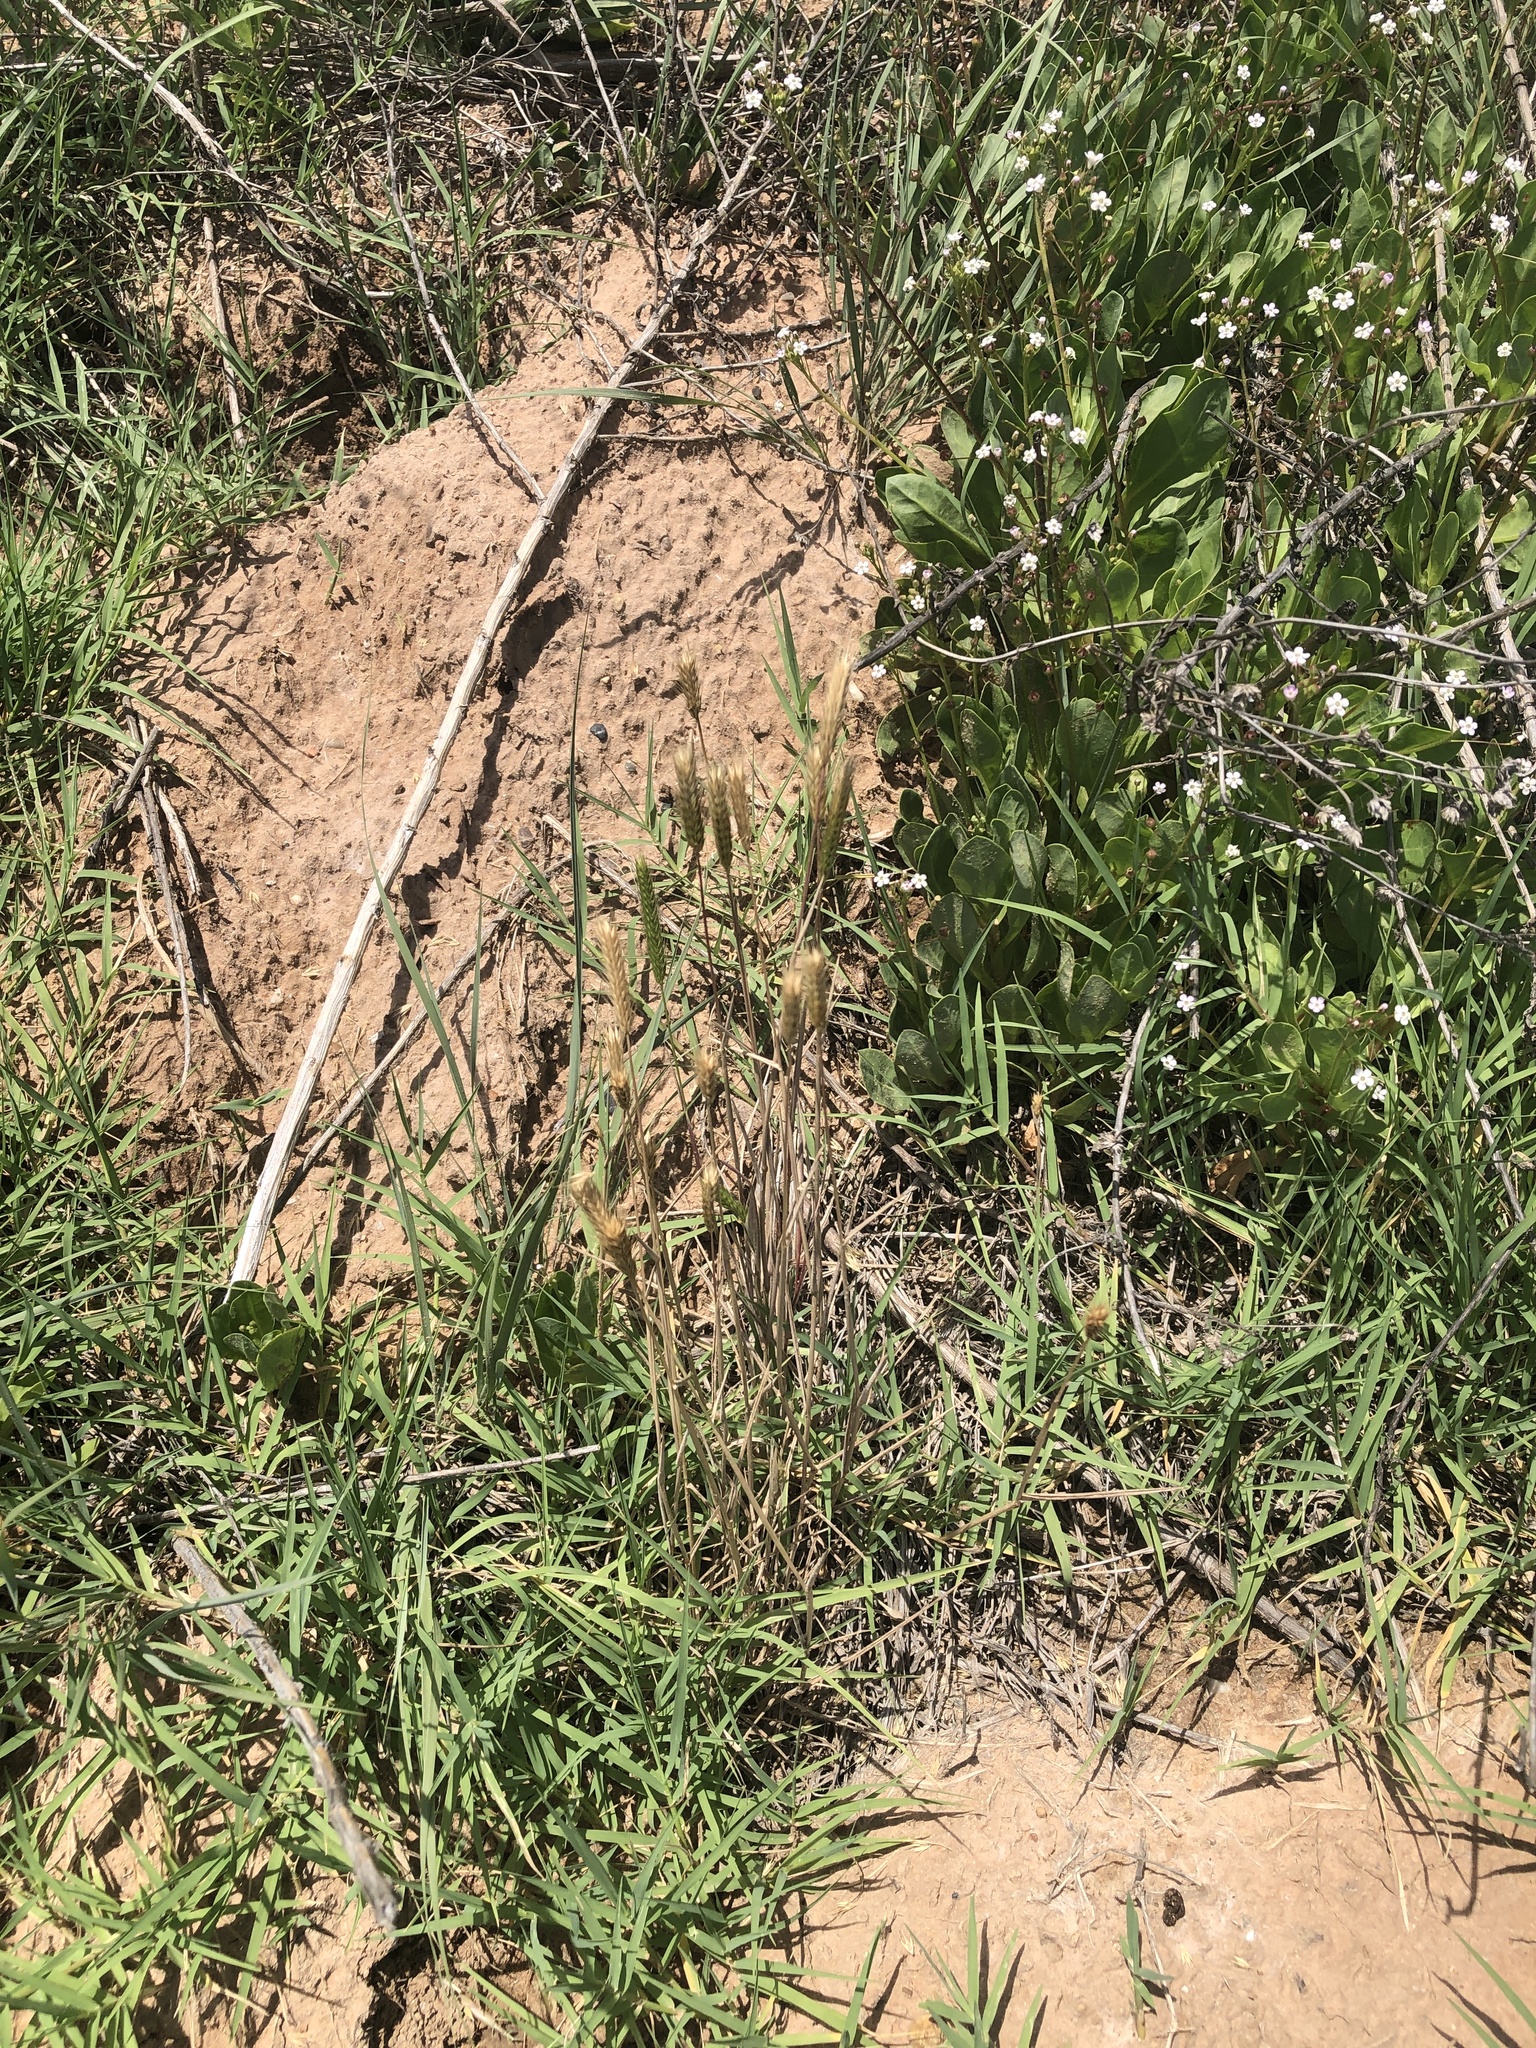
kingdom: Plantae
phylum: Tracheophyta
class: Liliopsida
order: Poales
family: Poaceae
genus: Hordeum
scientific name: Hordeum pusillum
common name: Little barley
